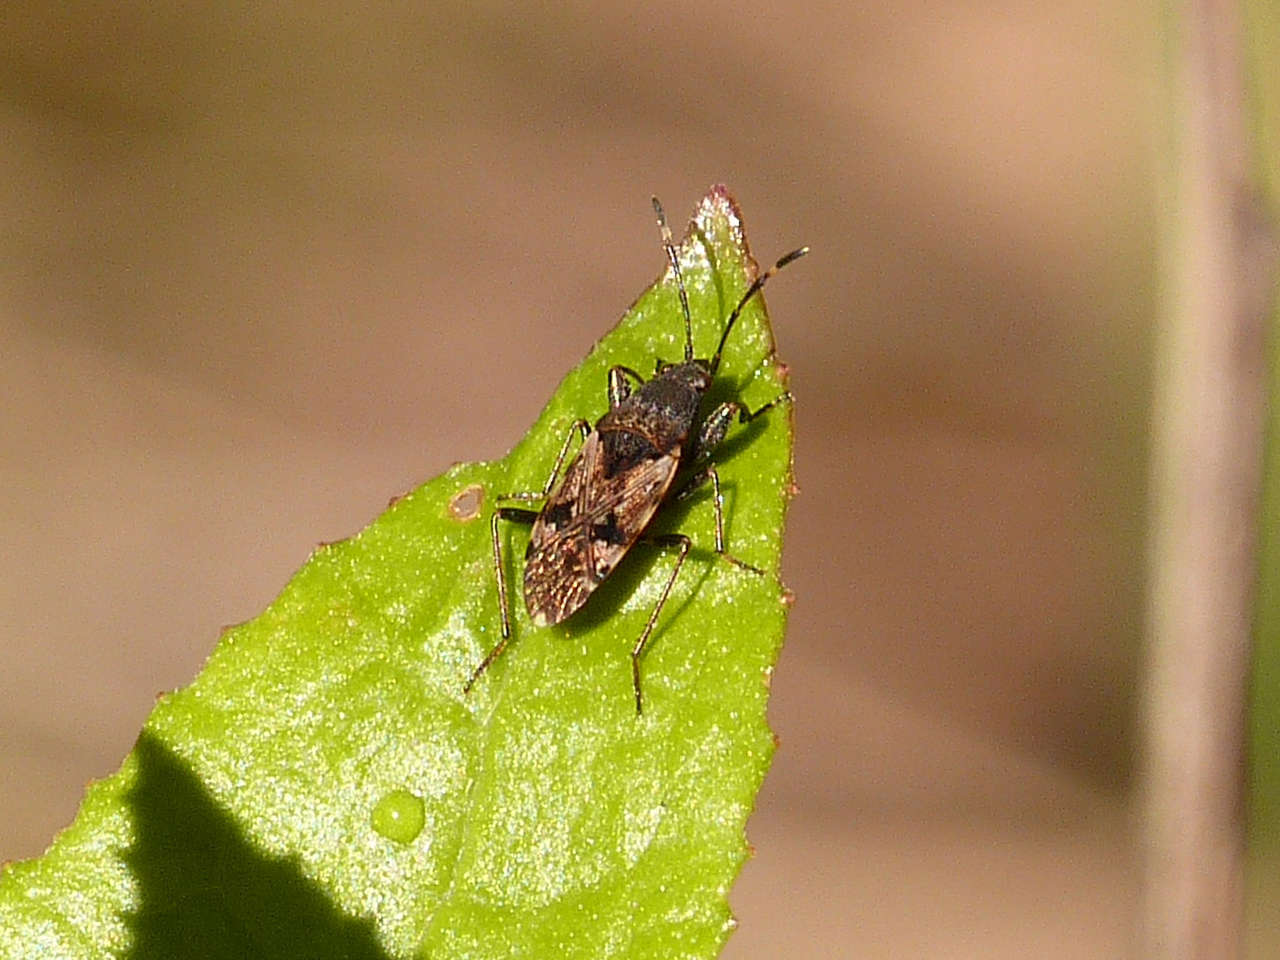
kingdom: Animalia
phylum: Arthropoda
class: Insecta
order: Hemiptera
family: Rhyparochromidae
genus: Euander
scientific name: Euander lacertosus
